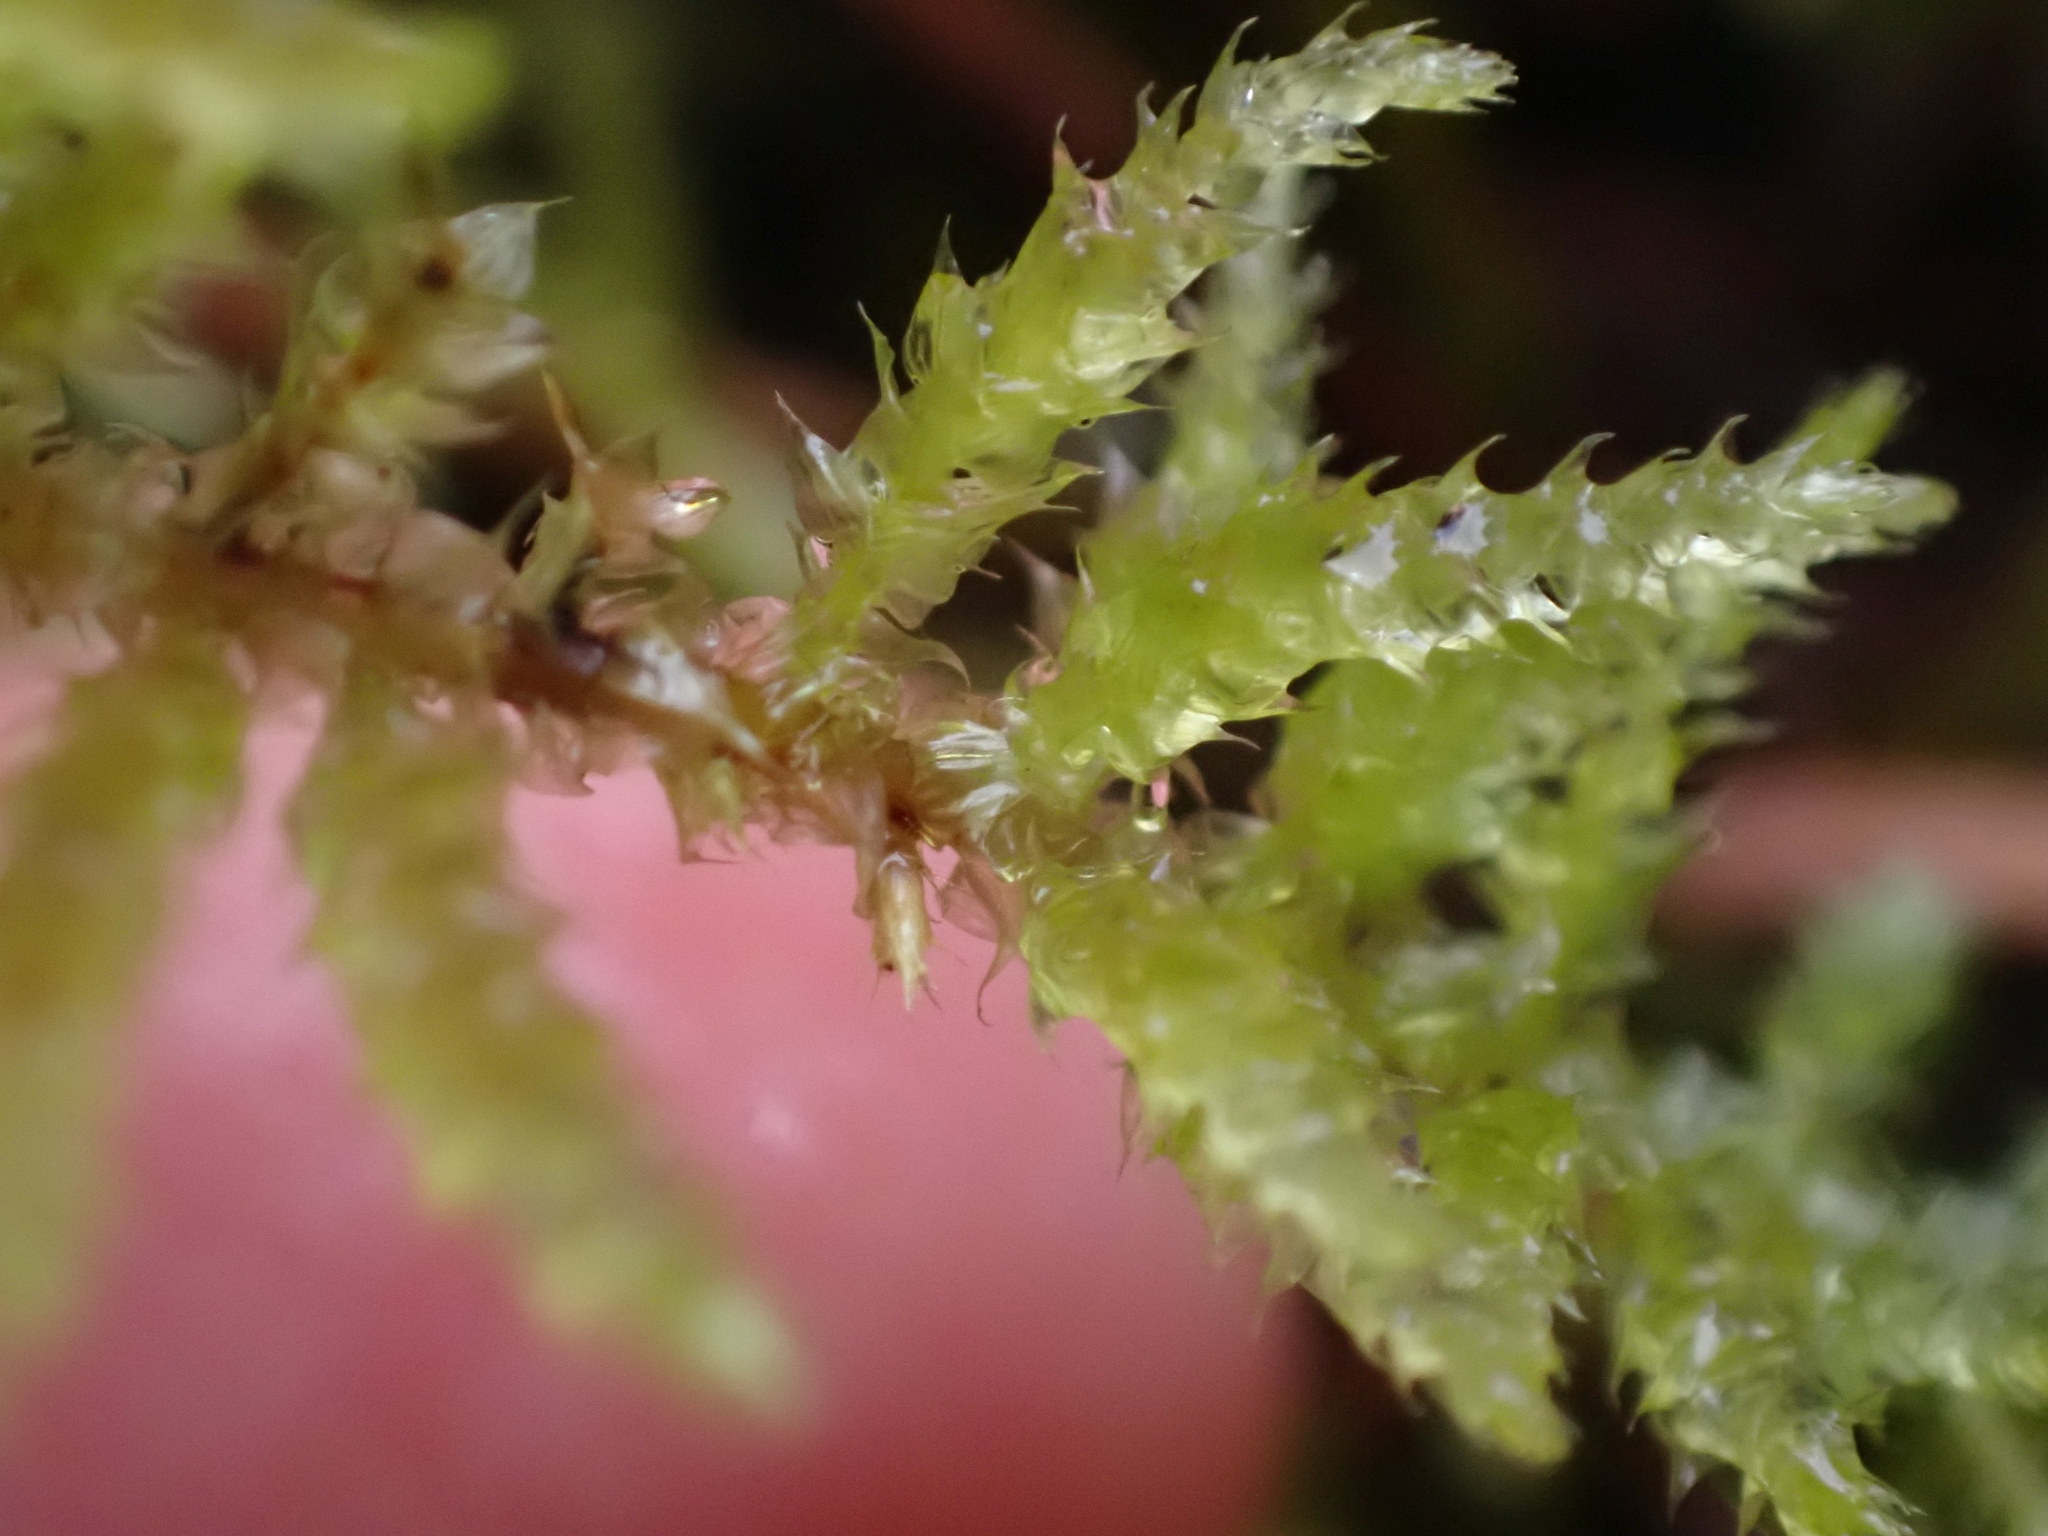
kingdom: Plantae
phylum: Bryophyta
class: Bryopsida
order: Hypnales
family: Brachytheciaceae
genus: Kindbergia
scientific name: Kindbergia oregana
